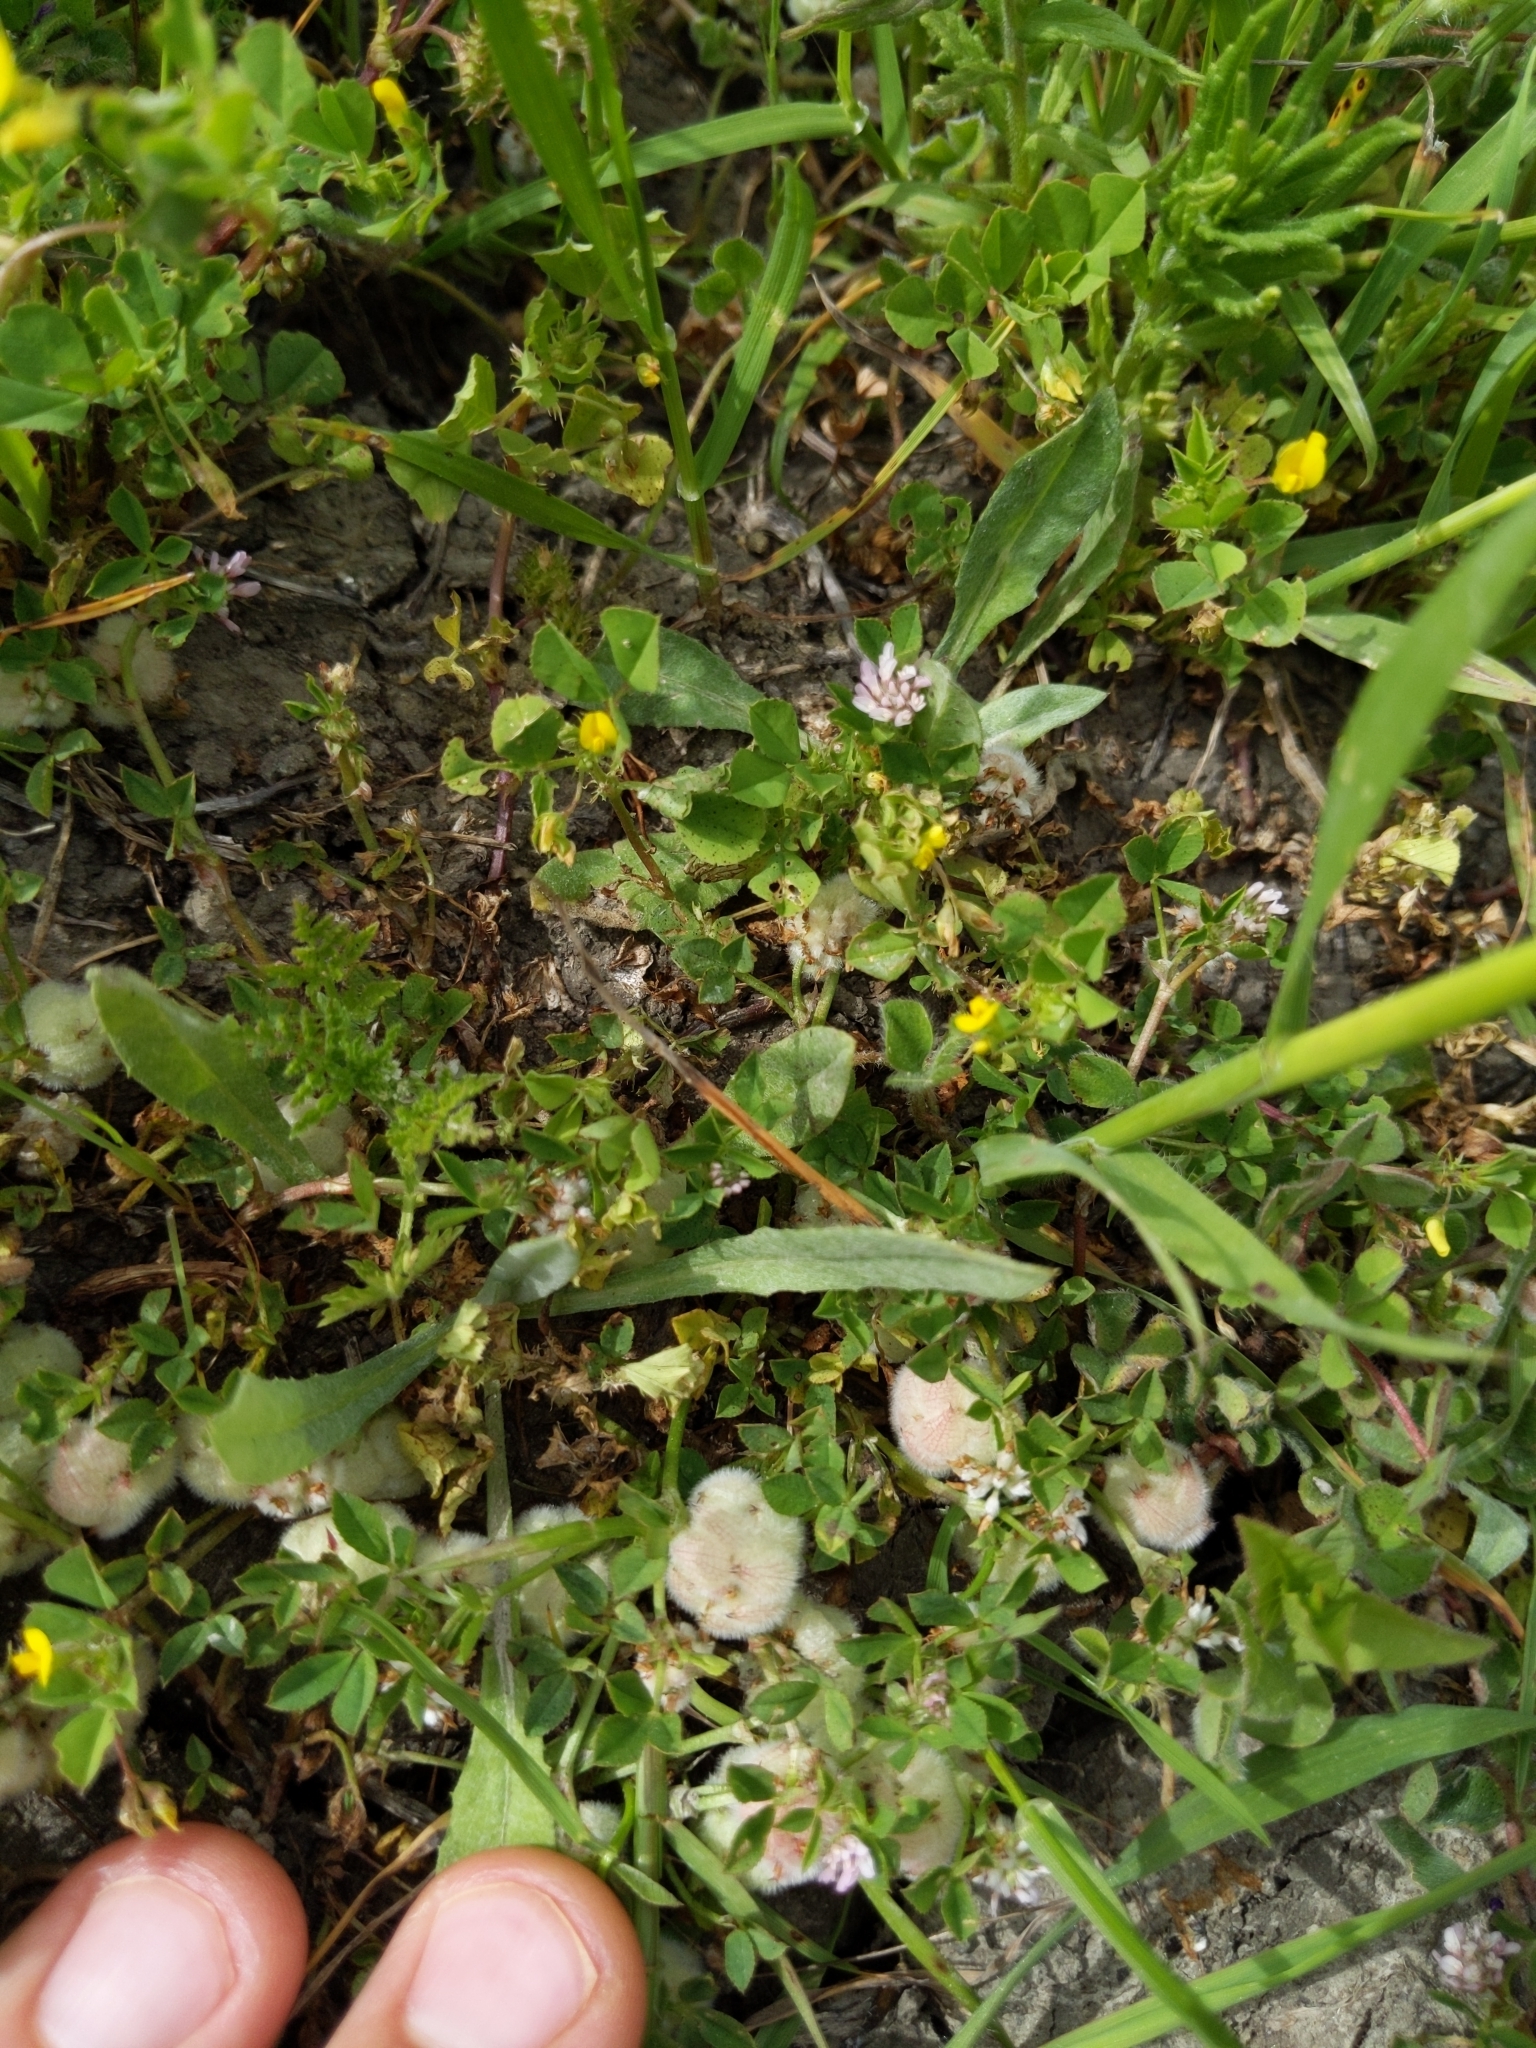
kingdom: Plantae
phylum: Tracheophyta
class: Magnoliopsida
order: Fabales
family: Fabaceae
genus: Trifolium
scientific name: Trifolium tomentosum
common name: Woolly clover
